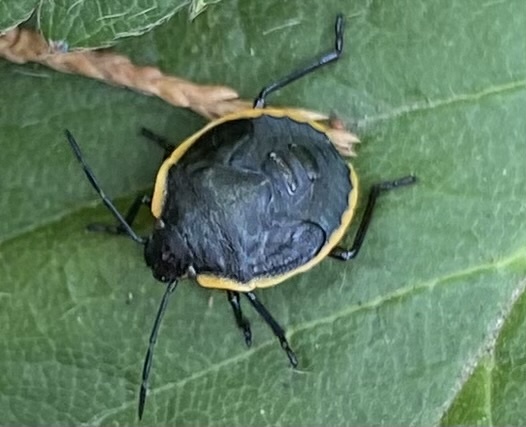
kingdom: Animalia
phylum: Arthropoda
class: Insecta
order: Hemiptera
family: Pentatomidae
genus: Chlorochroa
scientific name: Chlorochroa ligata
